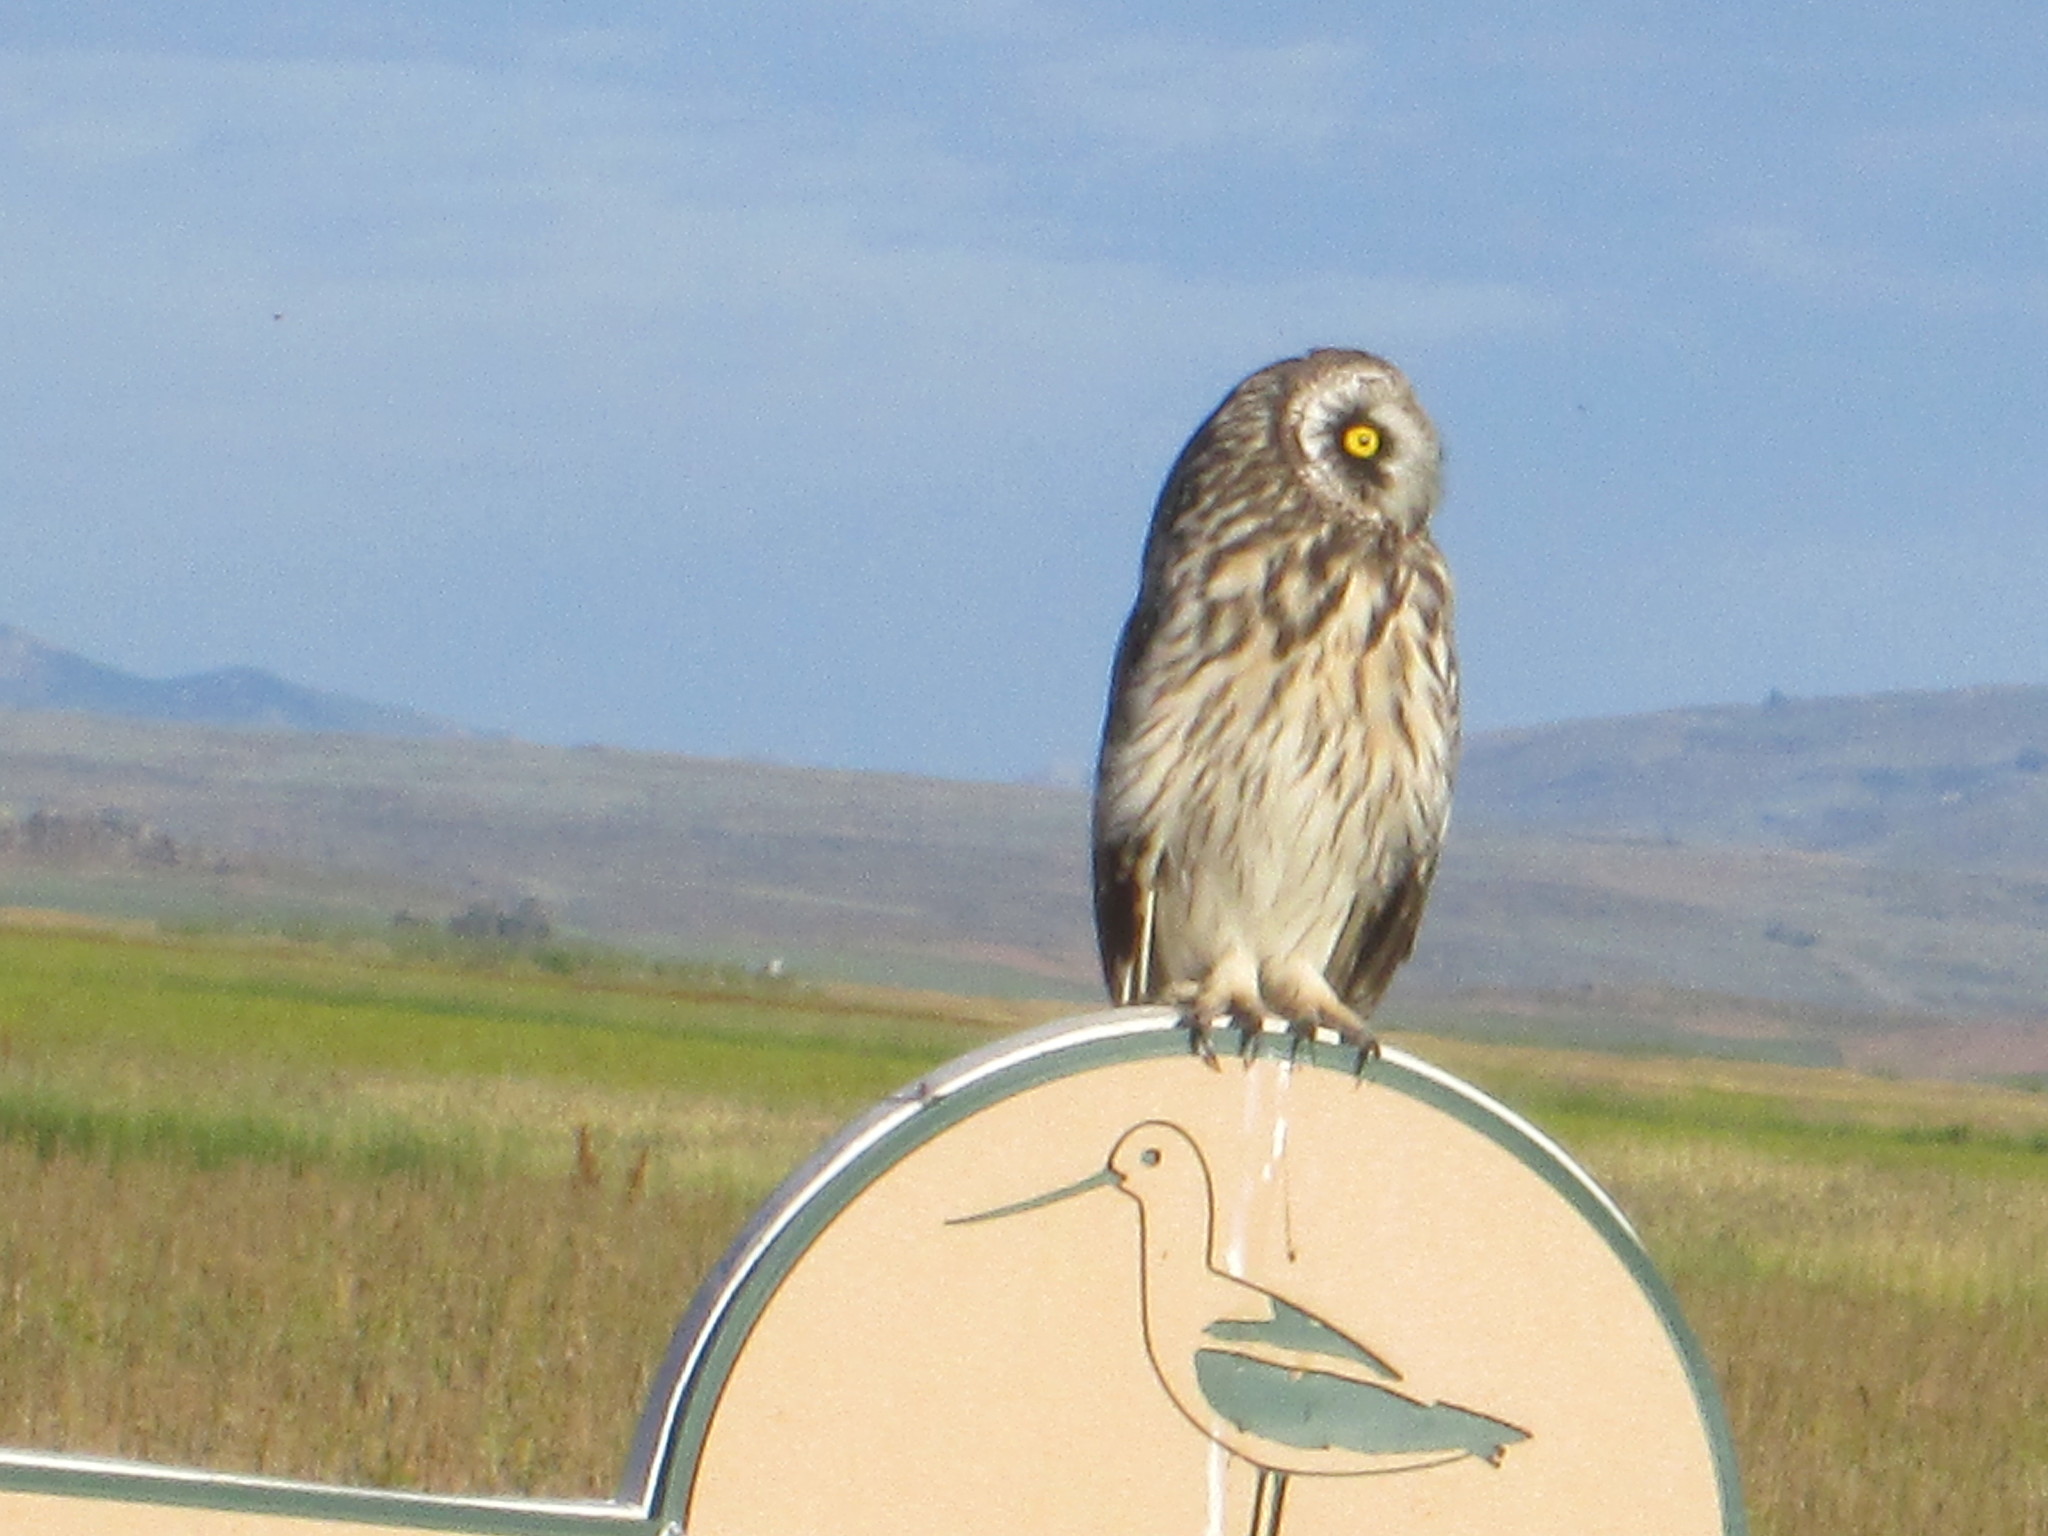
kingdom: Animalia
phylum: Chordata
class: Aves
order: Strigiformes
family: Strigidae
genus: Asio
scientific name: Asio flammeus
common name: Short-eared owl
